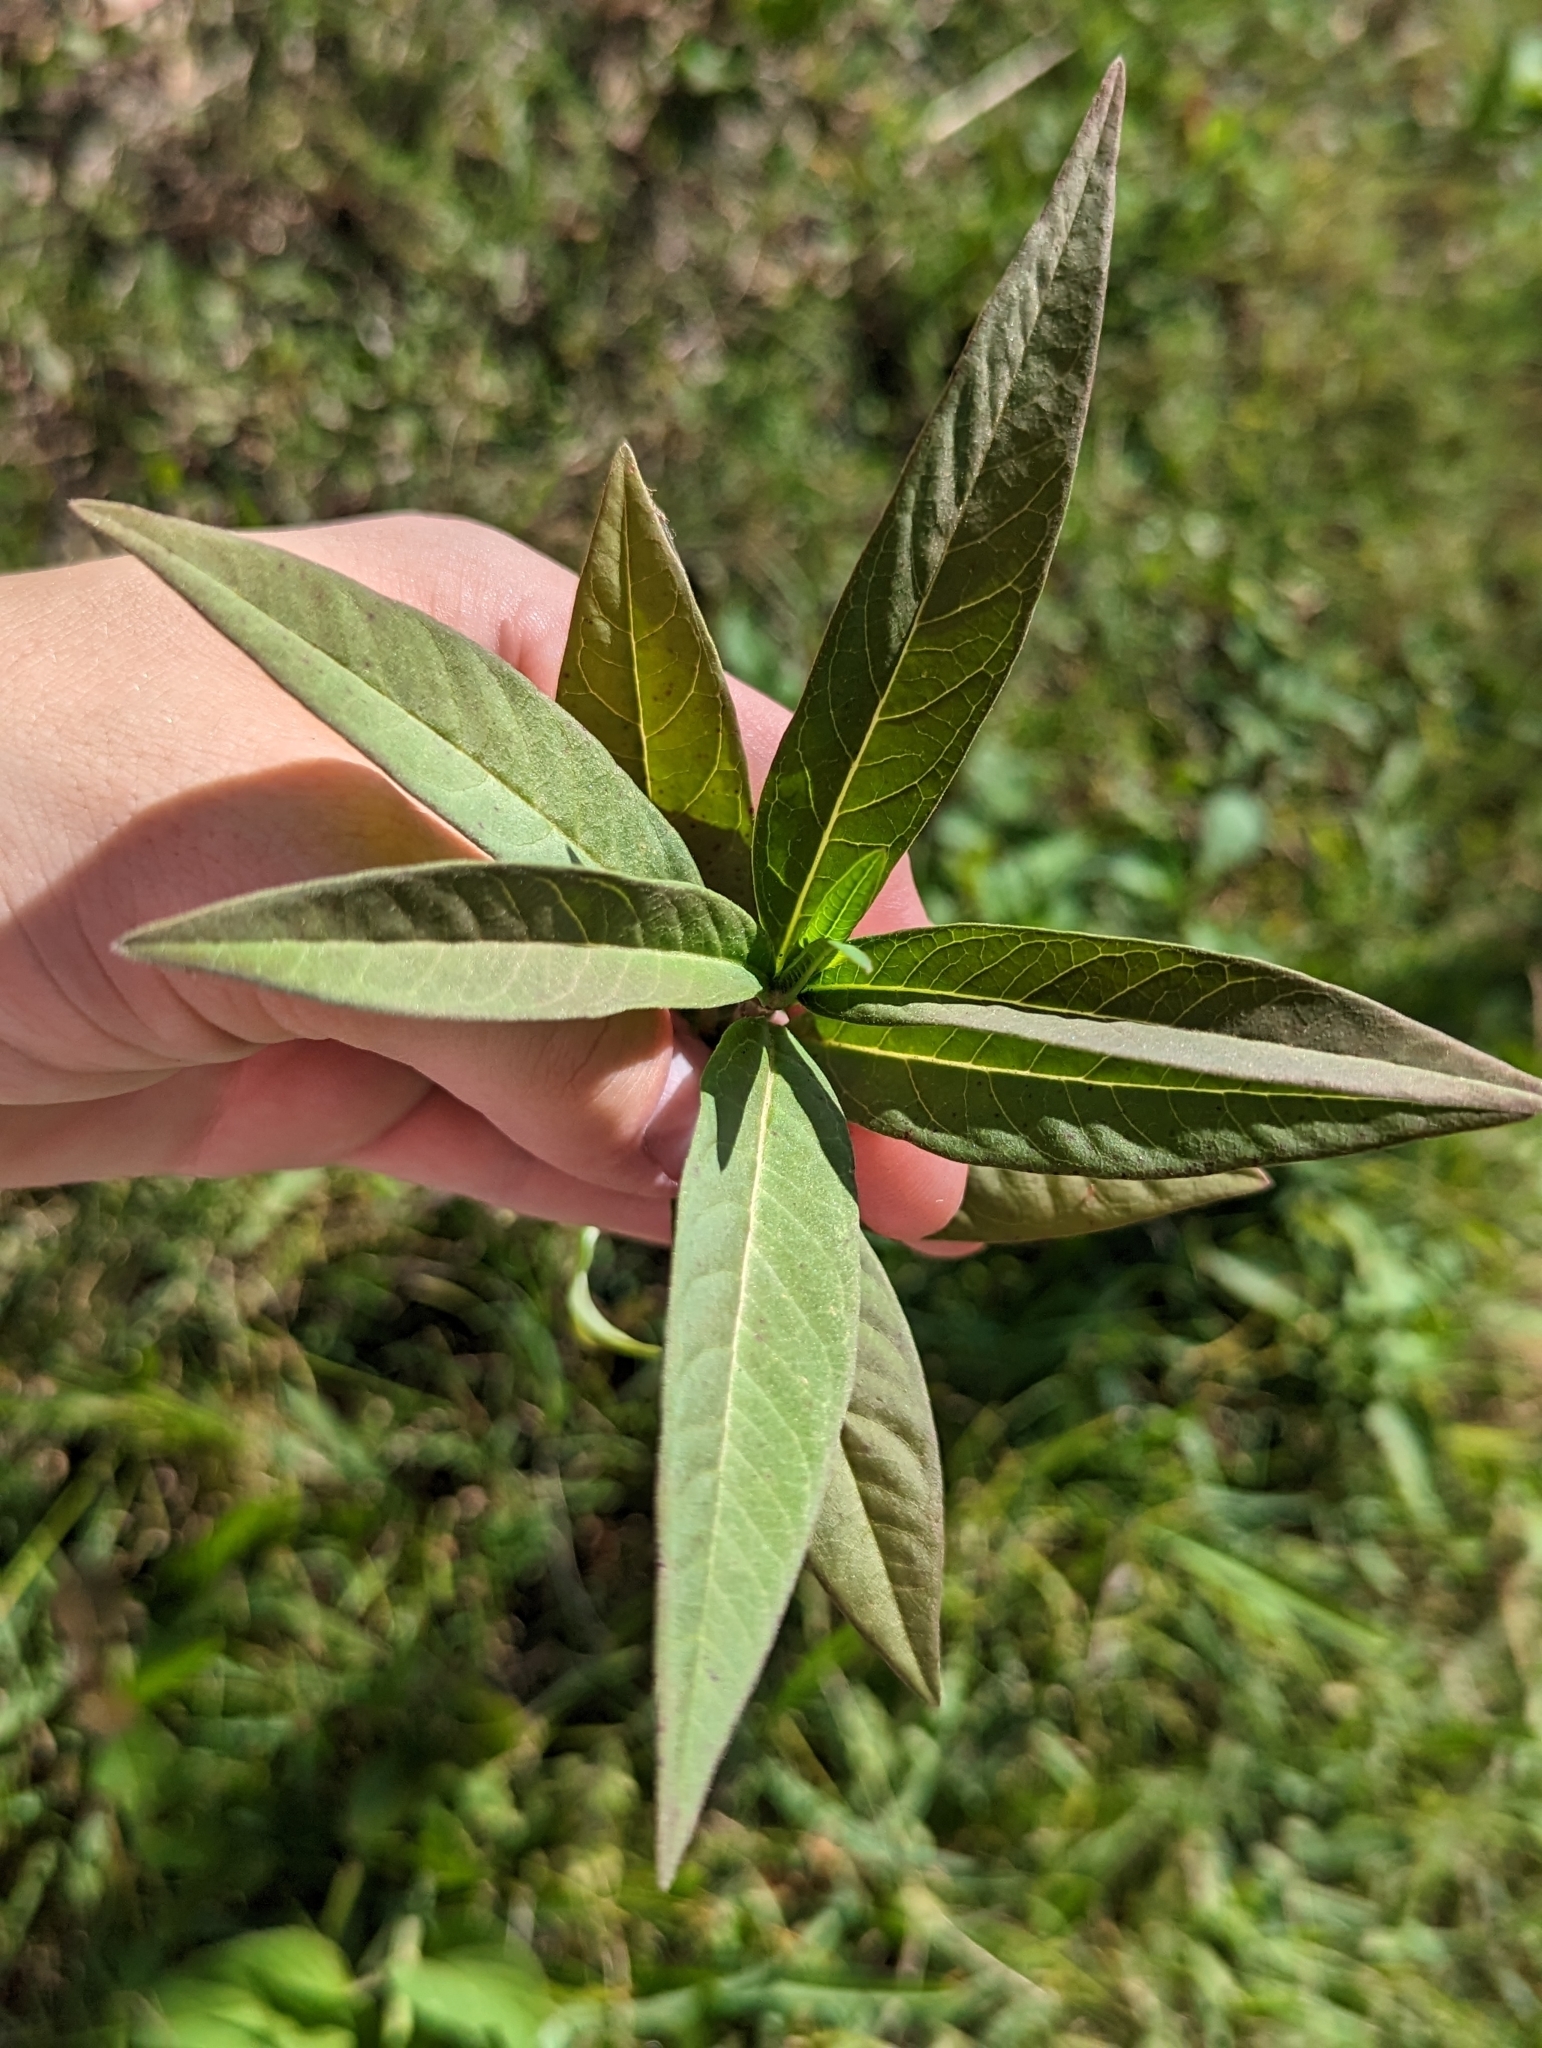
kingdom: Plantae
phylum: Tracheophyta
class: Magnoliopsida
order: Gentianales
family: Apocynaceae
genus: Asclepias
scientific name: Asclepias curassavica
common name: Bloodflower
